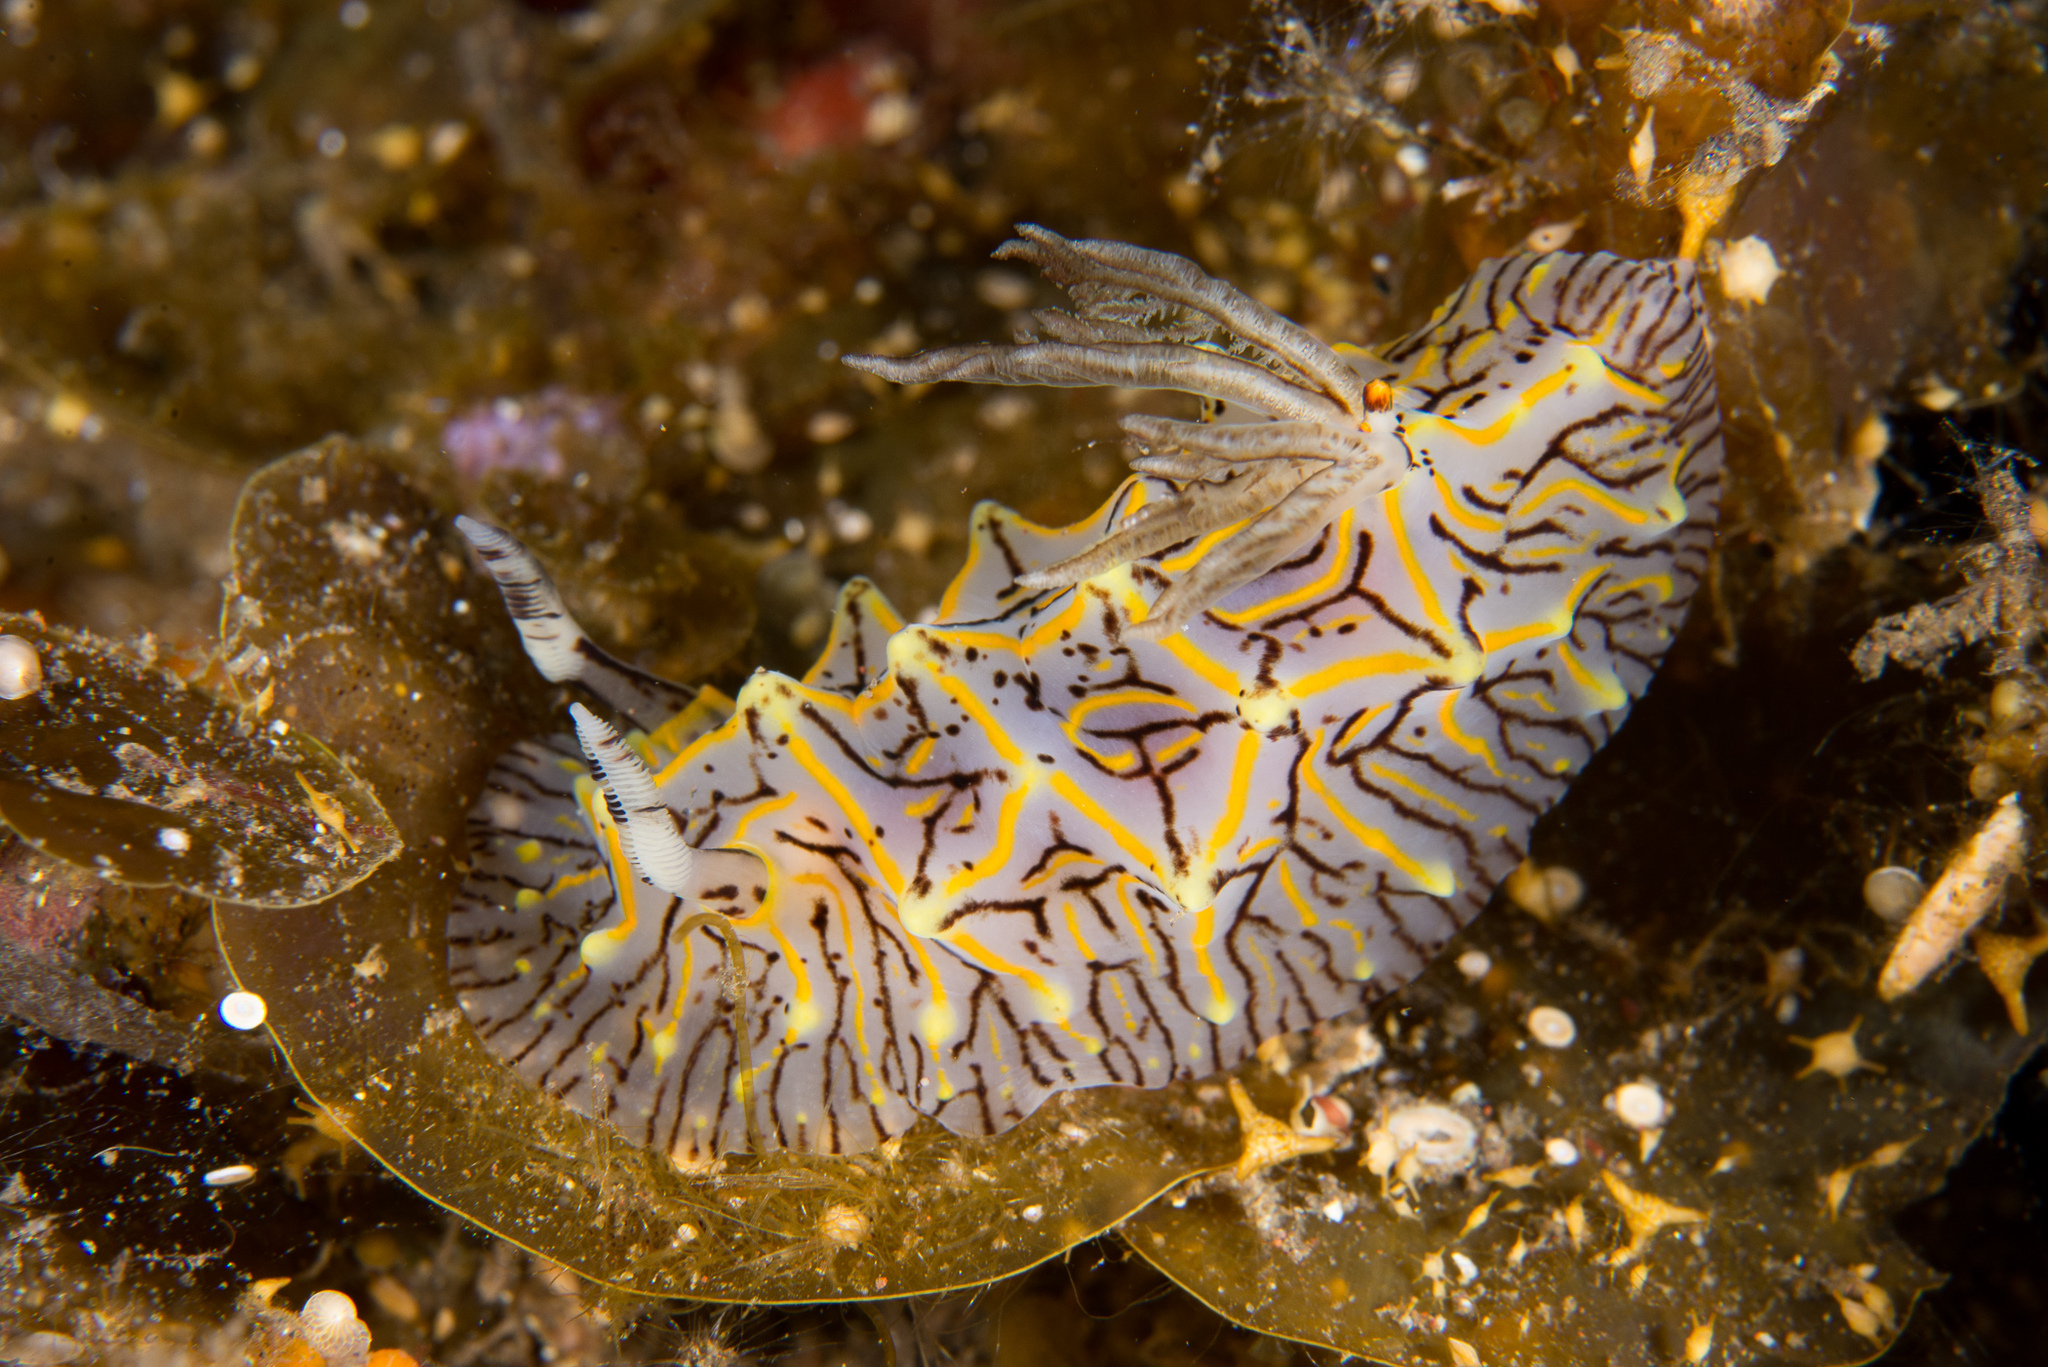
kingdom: Animalia
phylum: Mollusca
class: Gastropoda
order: Nudibranchia
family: Discodorididae
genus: Halgerda
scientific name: Halgerda willeyi
